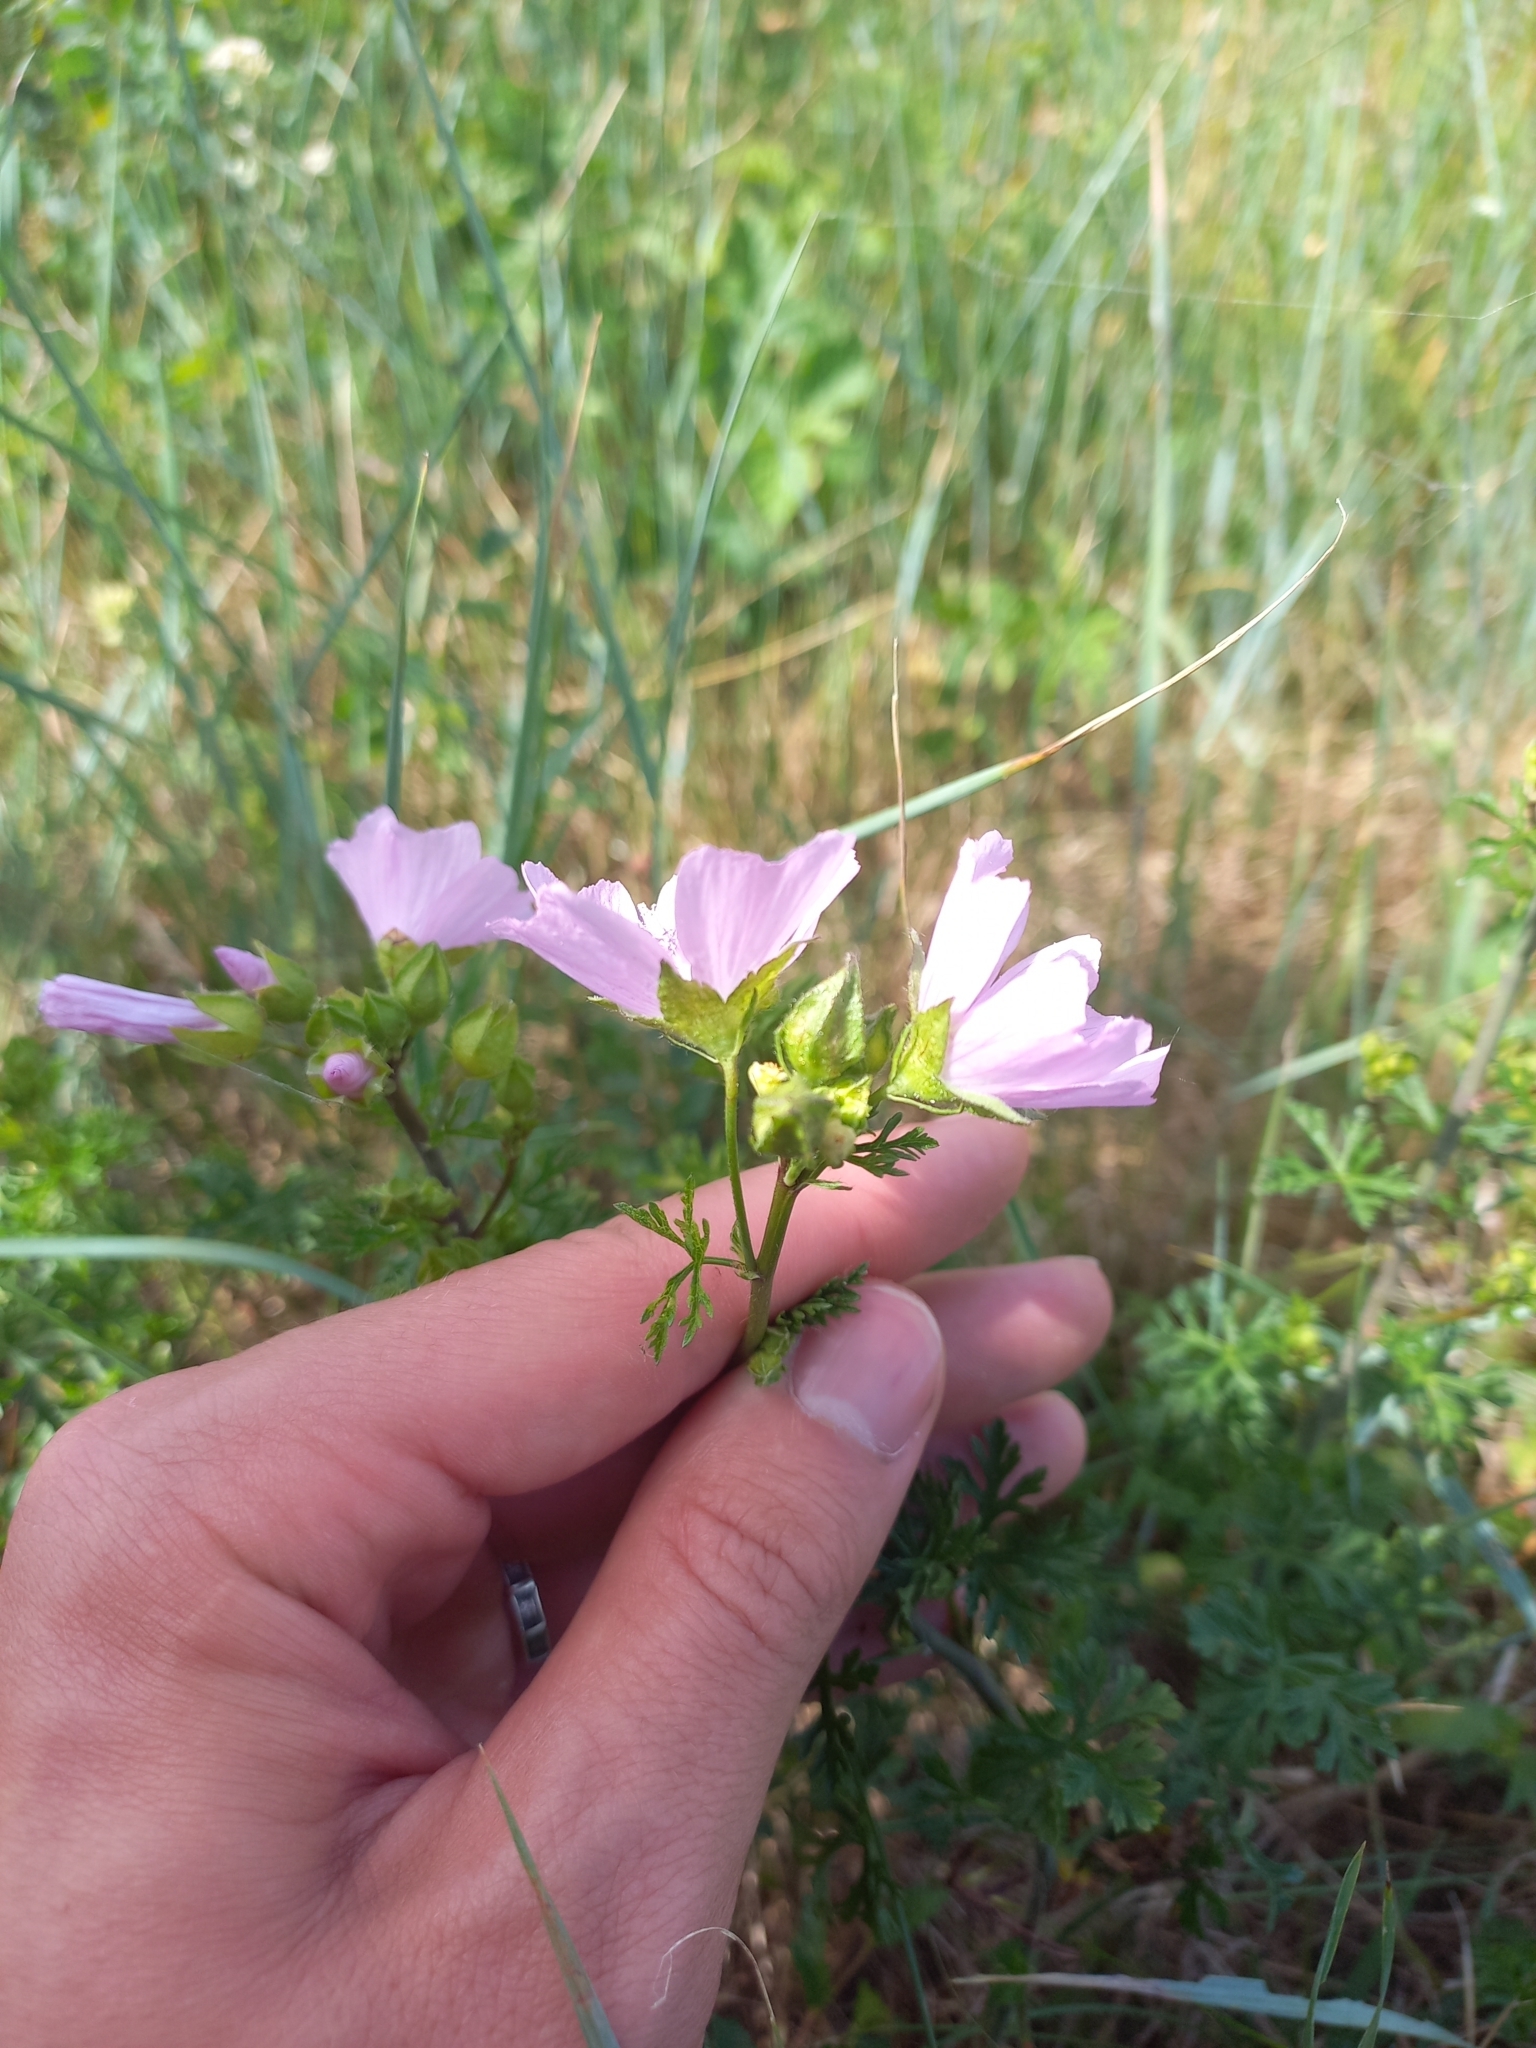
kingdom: Plantae
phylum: Tracheophyta
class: Magnoliopsida
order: Malvales
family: Malvaceae
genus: Malva
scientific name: Malva moschata
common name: Musk mallow
